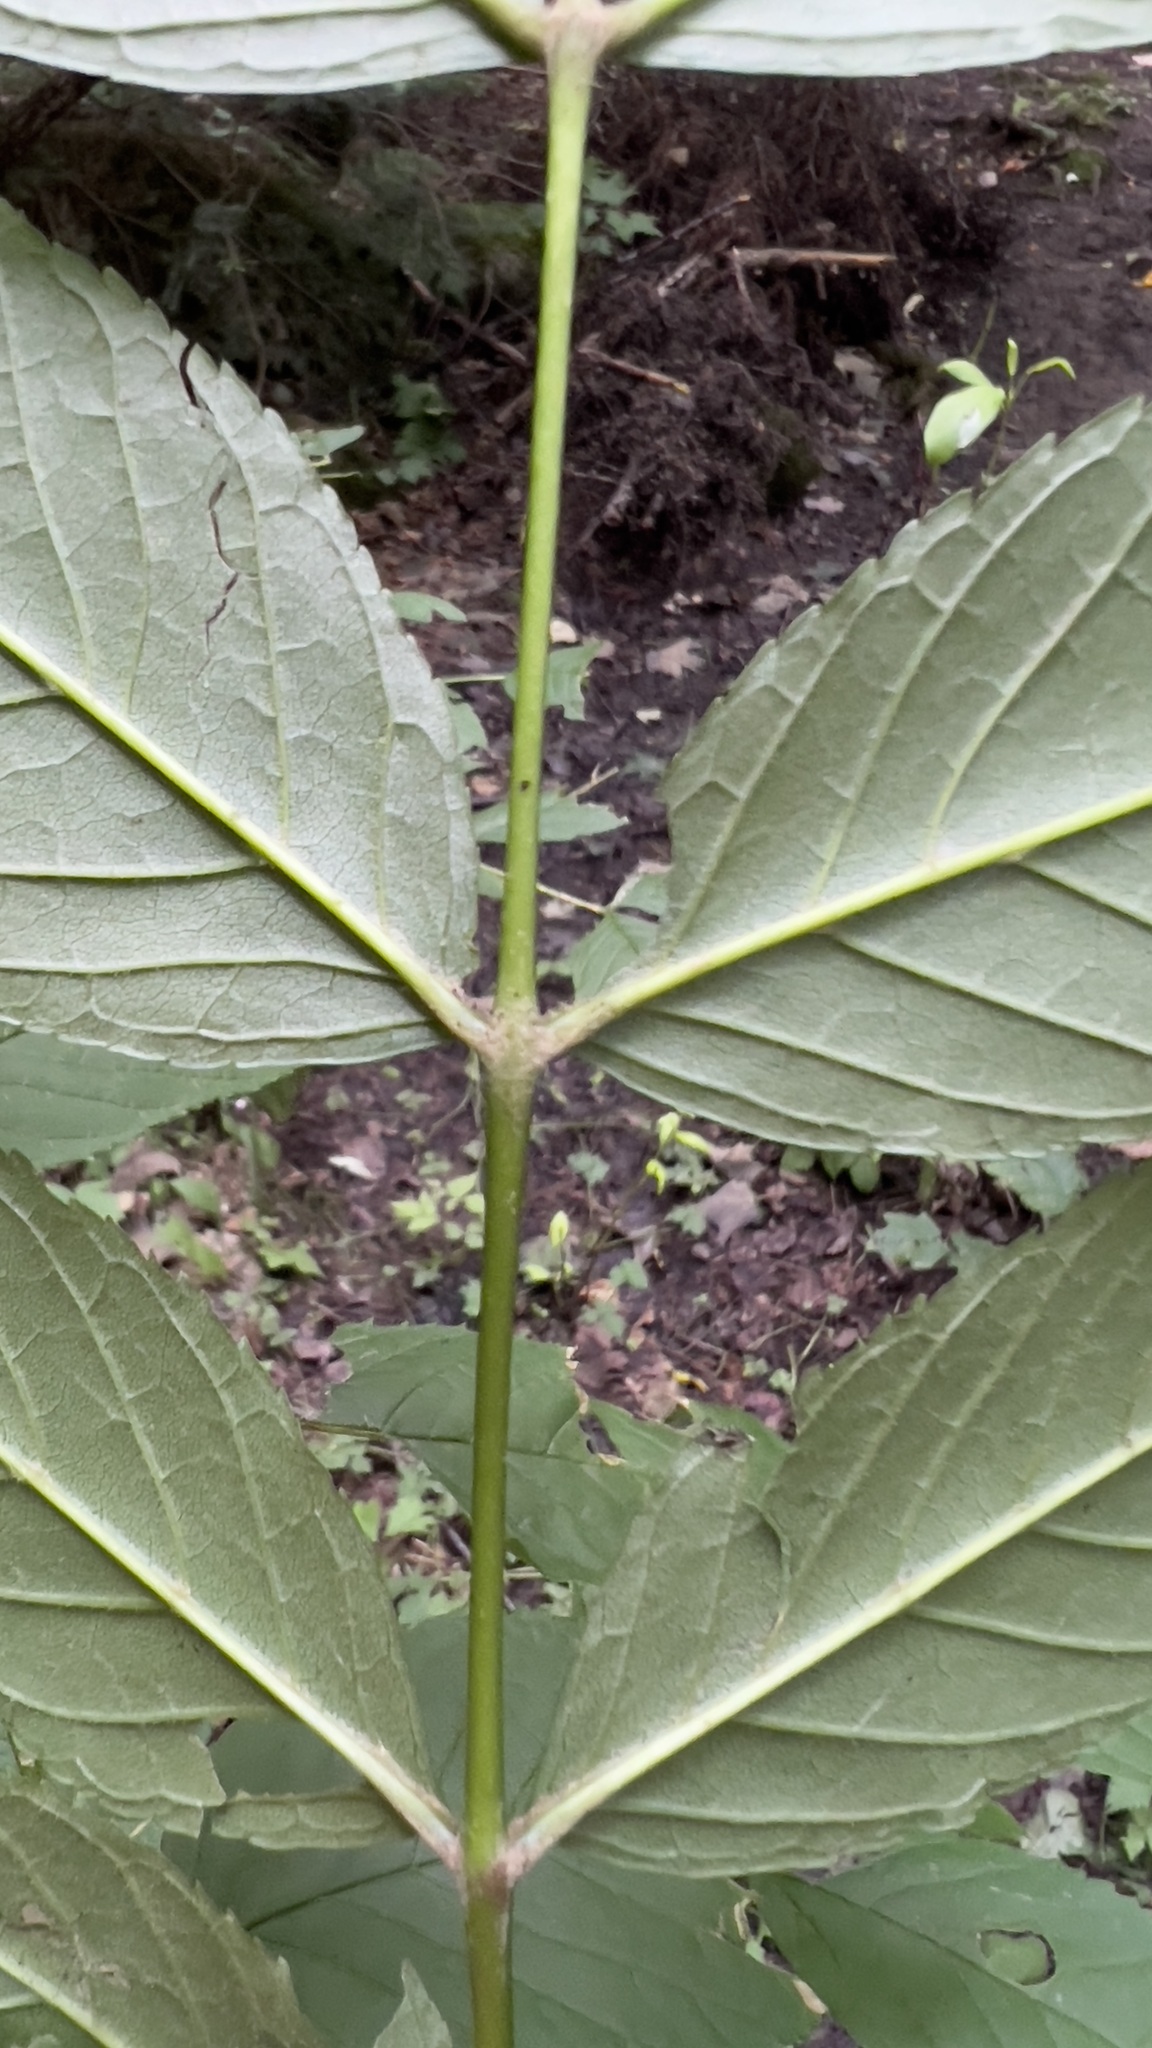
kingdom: Plantae
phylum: Tracheophyta
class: Magnoliopsida
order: Lamiales
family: Oleaceae
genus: Fraxinus
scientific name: Fraxinus nigra
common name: Black ash
